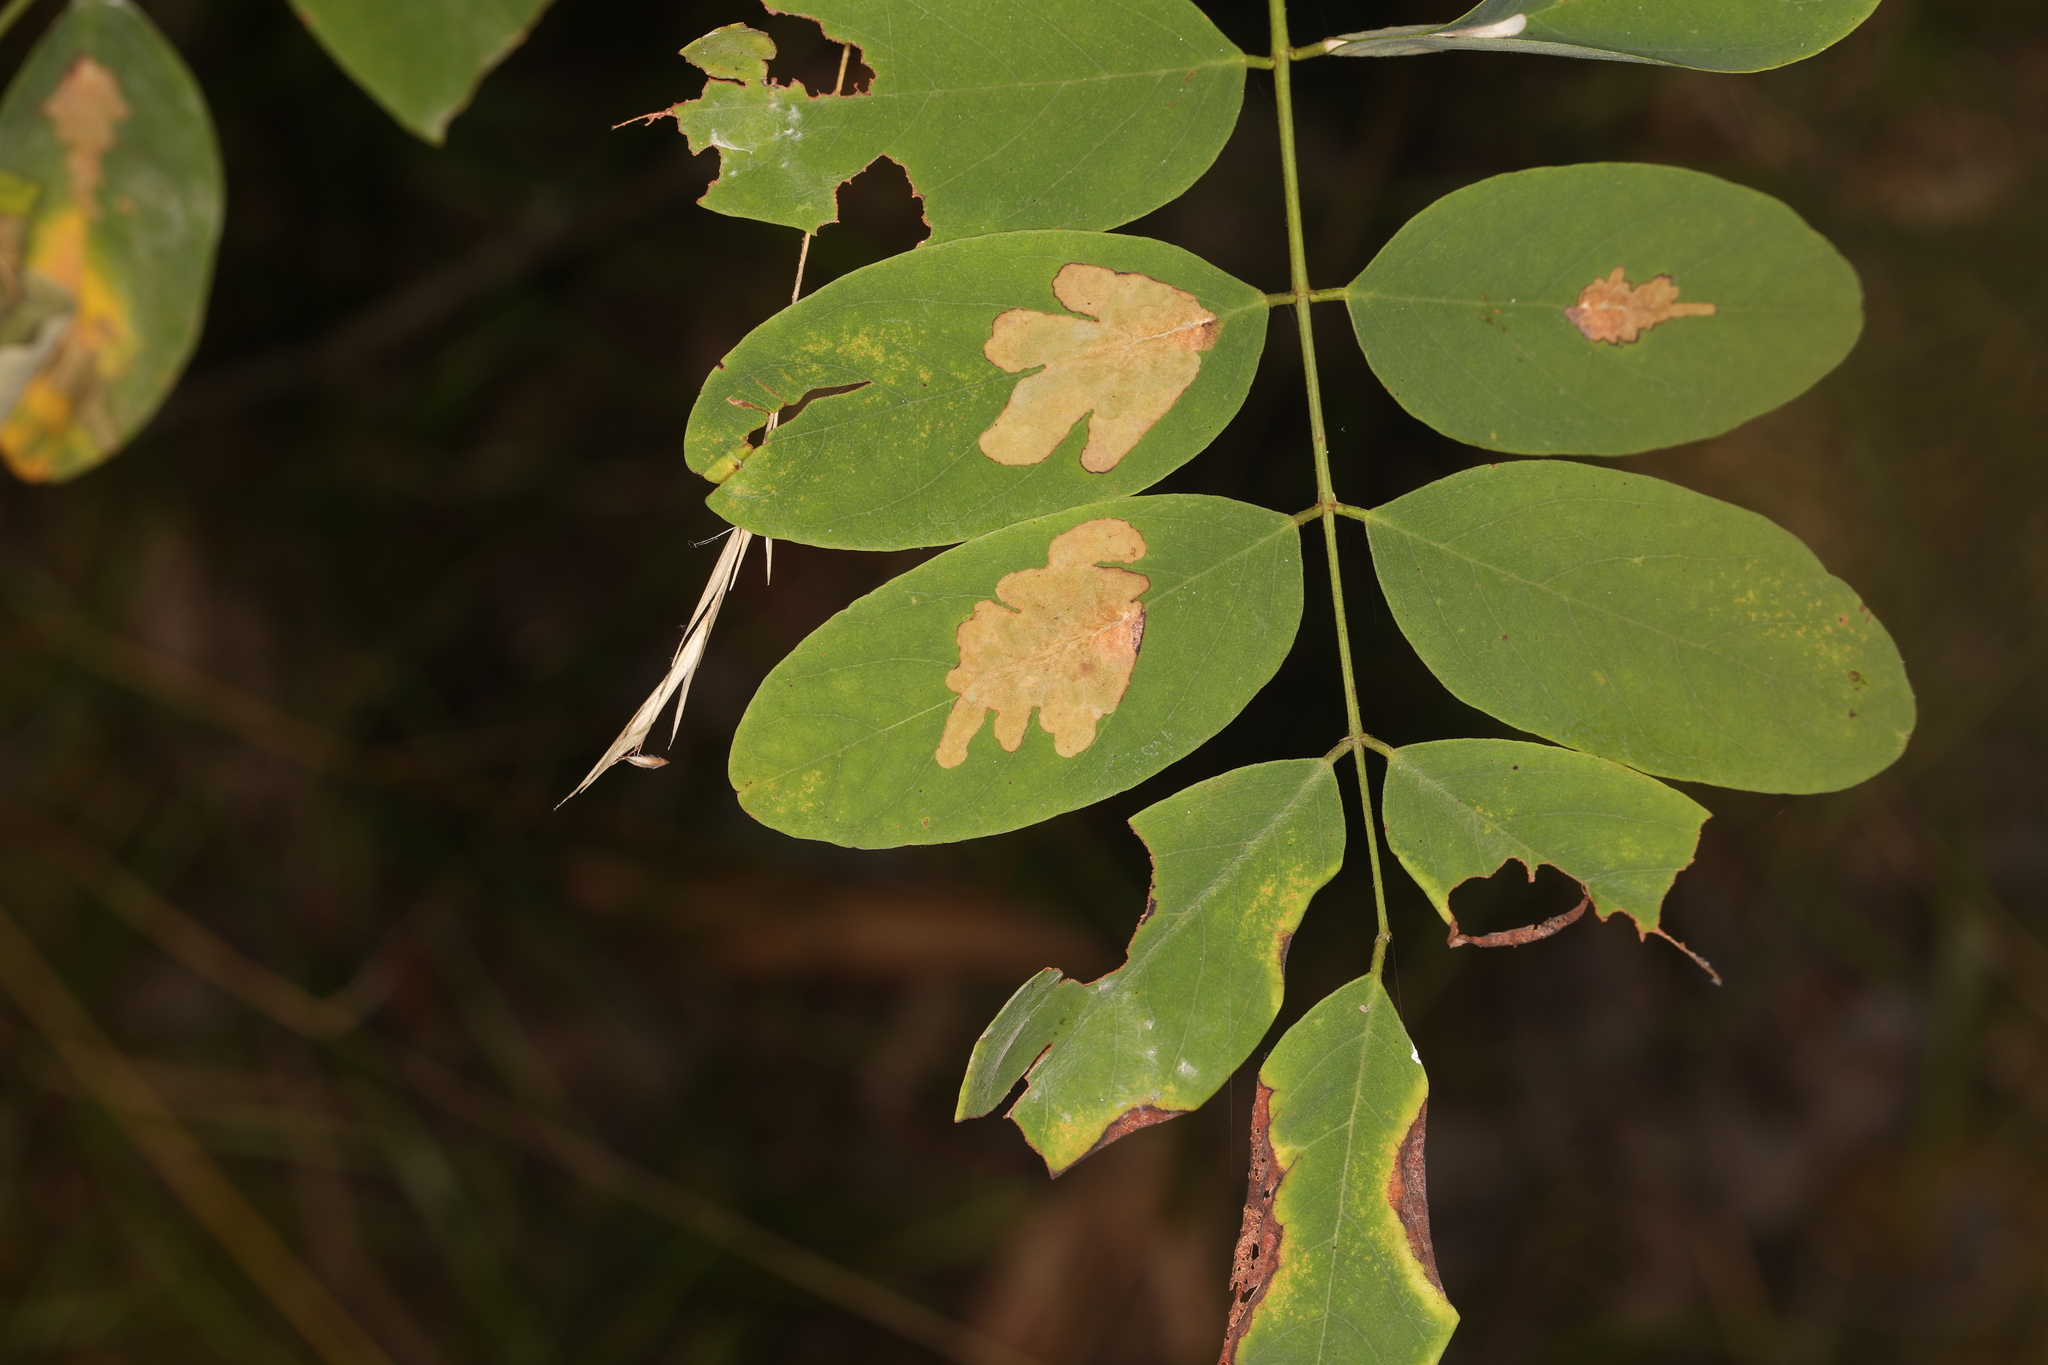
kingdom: Animalia
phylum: Arthropoda
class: Insecta
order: Lepidoptera
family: Gracillariidae
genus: Parectopa
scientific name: Parectopa robiniella
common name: Locust digitate leafminer
